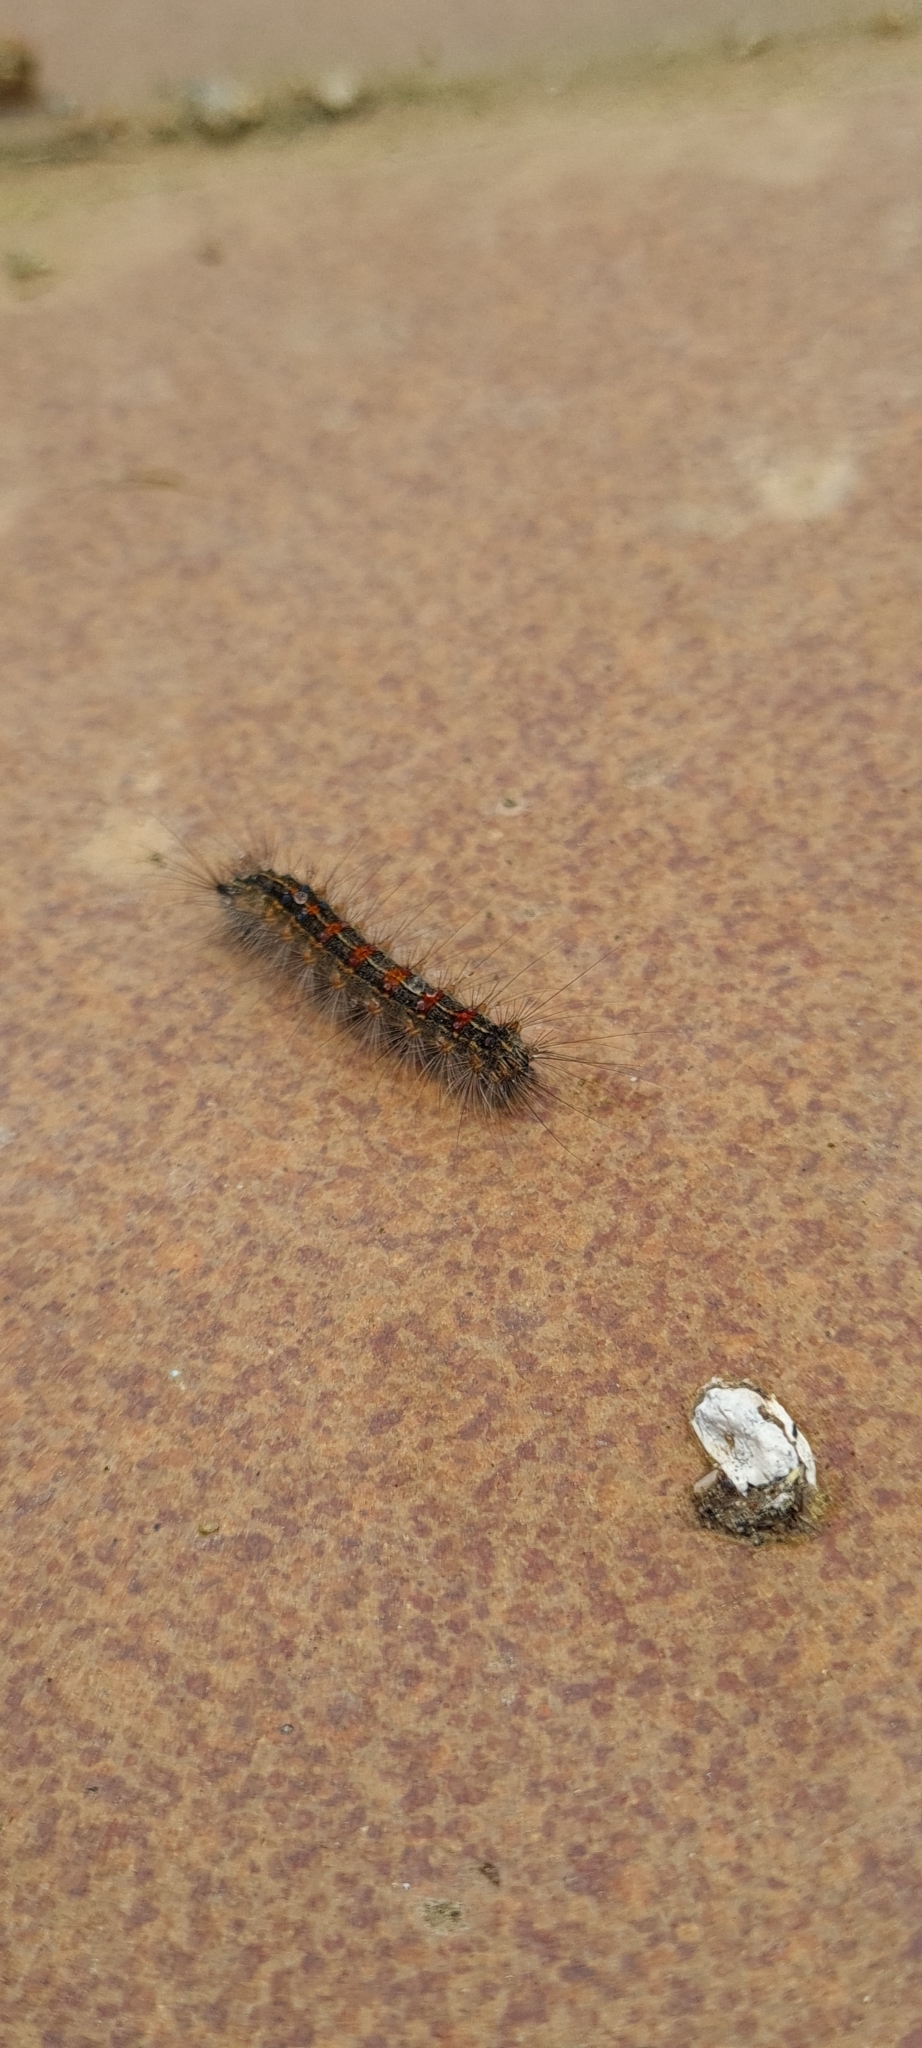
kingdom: Animalia
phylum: Arthropoda
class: Insecta
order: Lepidoptera
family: Erebidae
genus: Lymantria
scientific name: Lymantria dispar
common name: Gypsy moth
